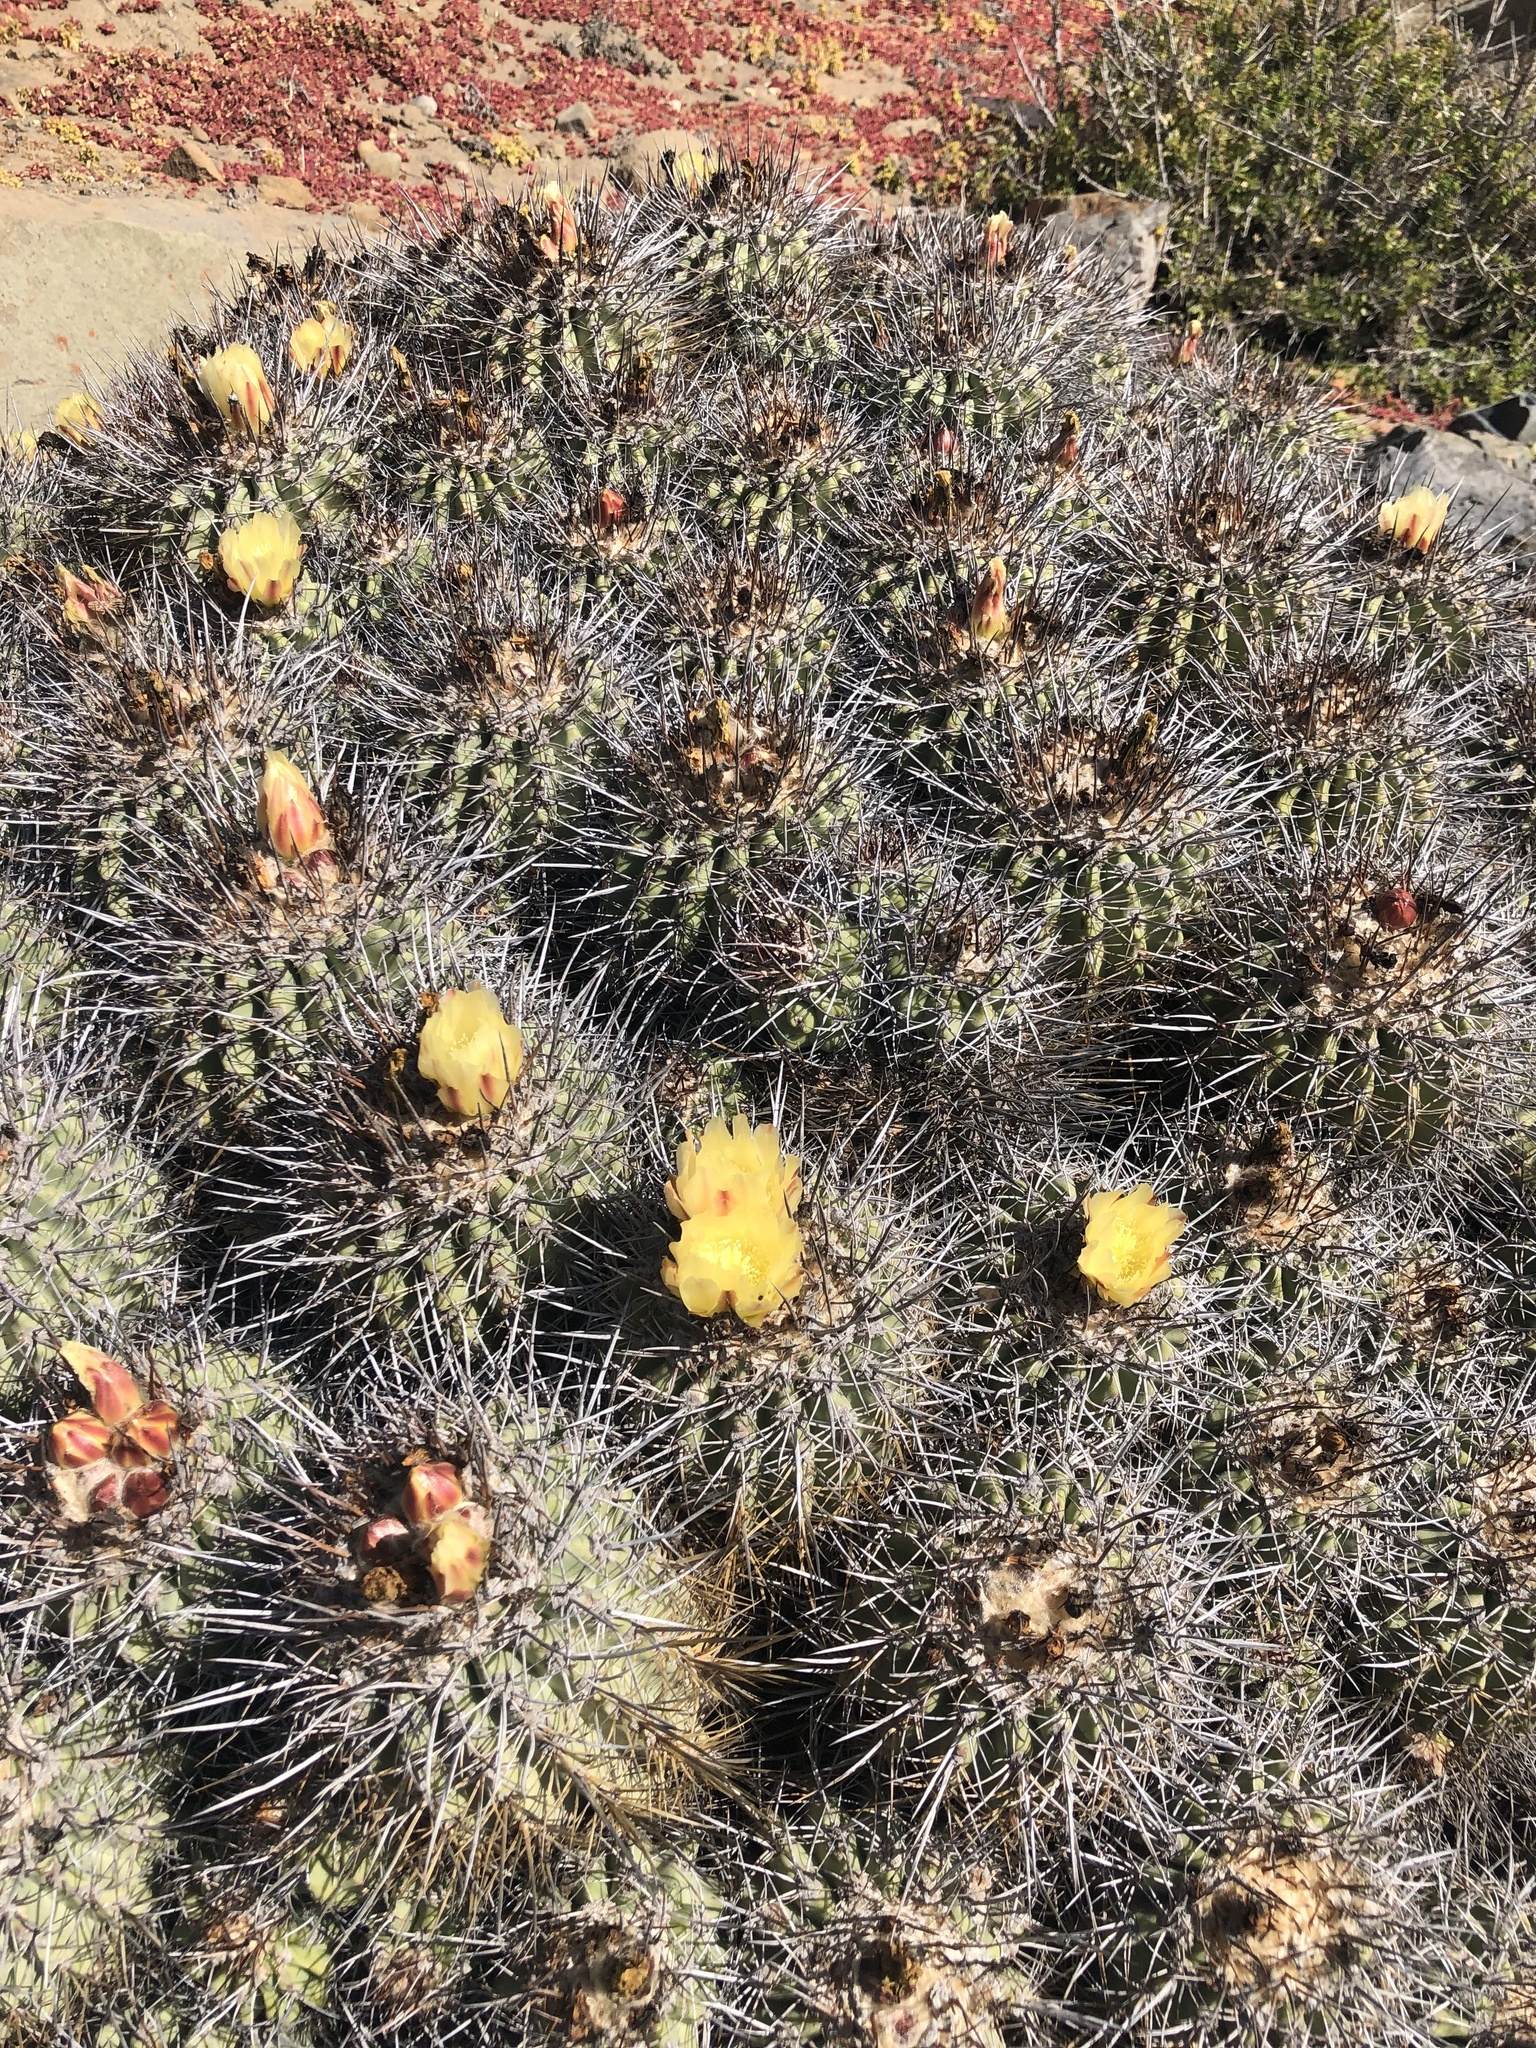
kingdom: Plantae
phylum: Tracheophyta
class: Magnoliopsida
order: Caryophyllales
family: Cactaceae
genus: Copiapoa
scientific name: Copiapoa coquimbana
